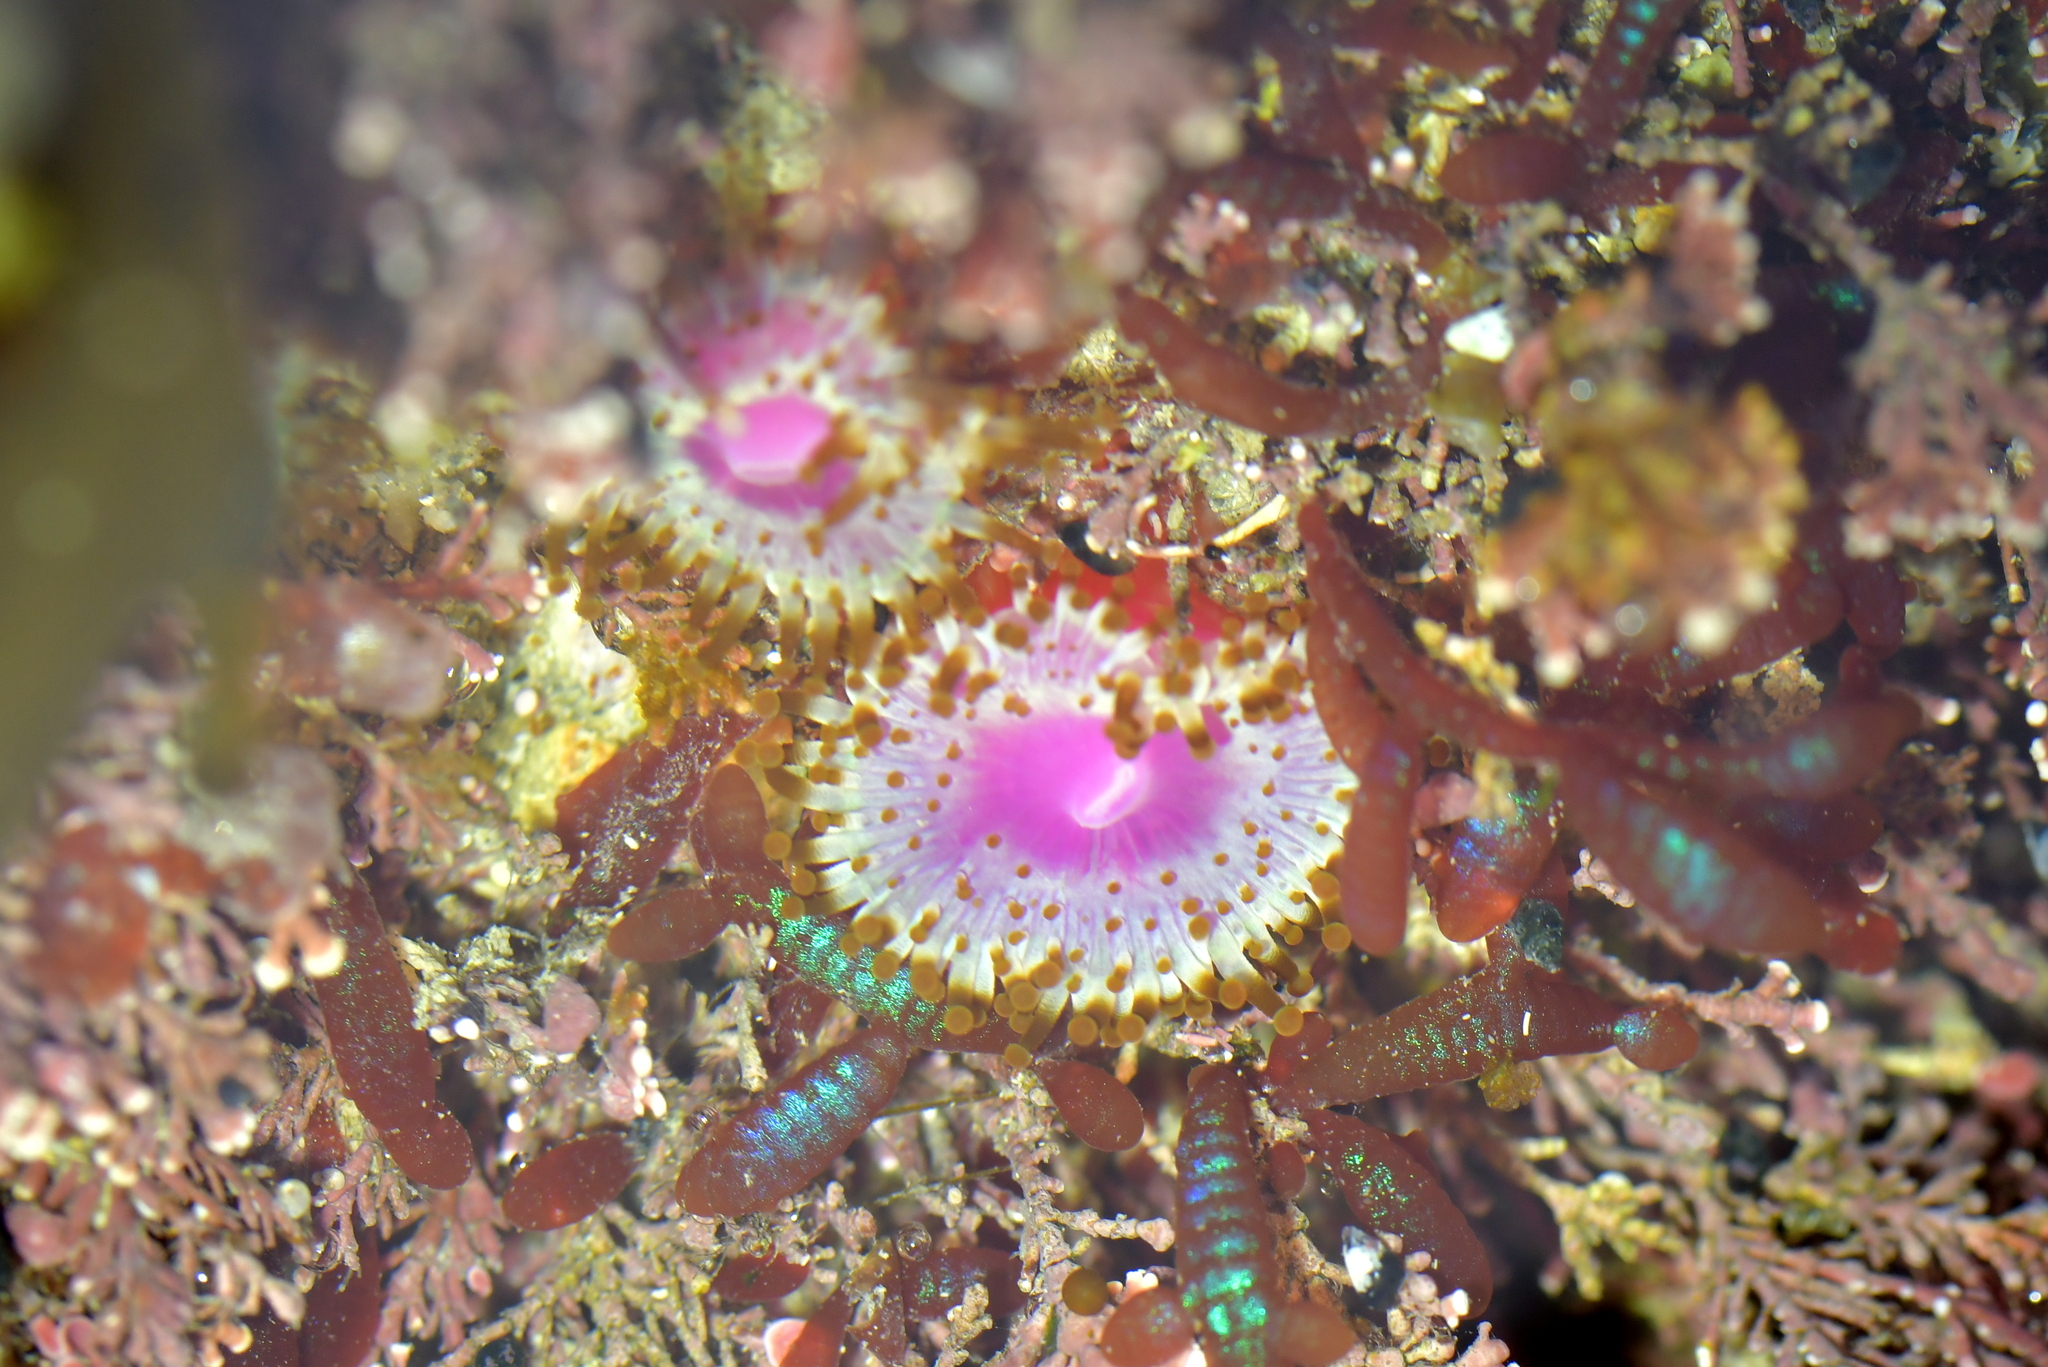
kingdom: Animalia
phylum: Cnidaria
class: Anthozoa
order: Corallimorpharia
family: Corallimorphidae
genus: Corynactis
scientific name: Corynactis australis
